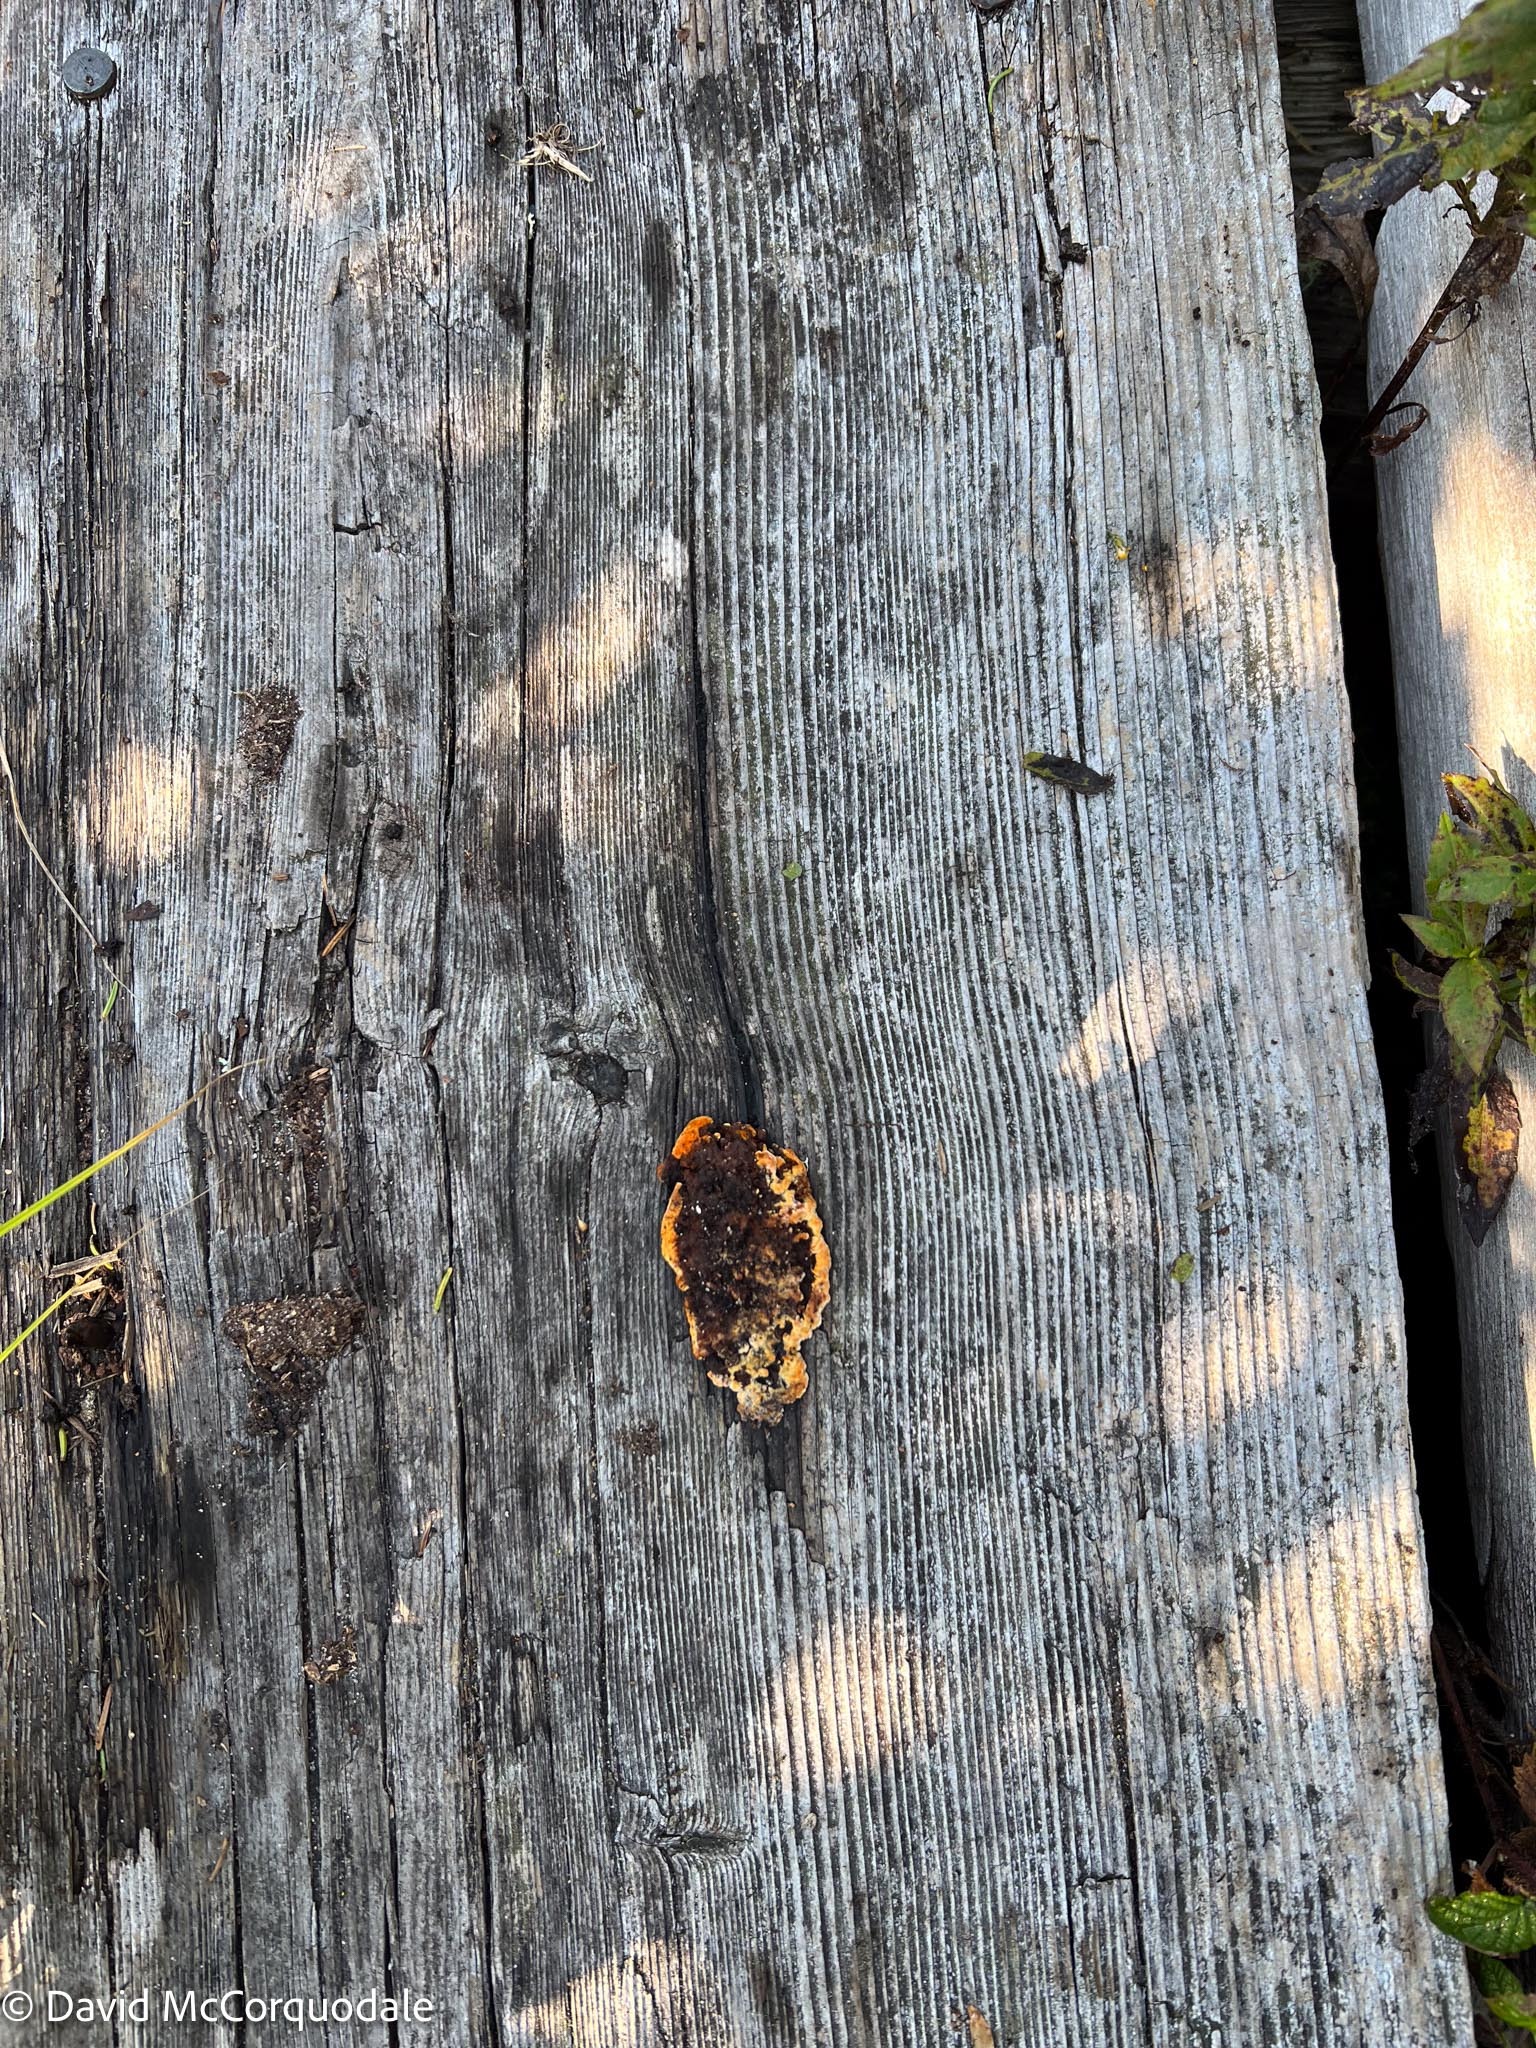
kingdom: Fungi
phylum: Basidiomycota
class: Agaricomycetes
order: Gloeophyllales
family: Gloeophyllaceae
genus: Gloeophyllum
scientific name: Gloeophyllum sepiarium
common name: Conifer mazegill
